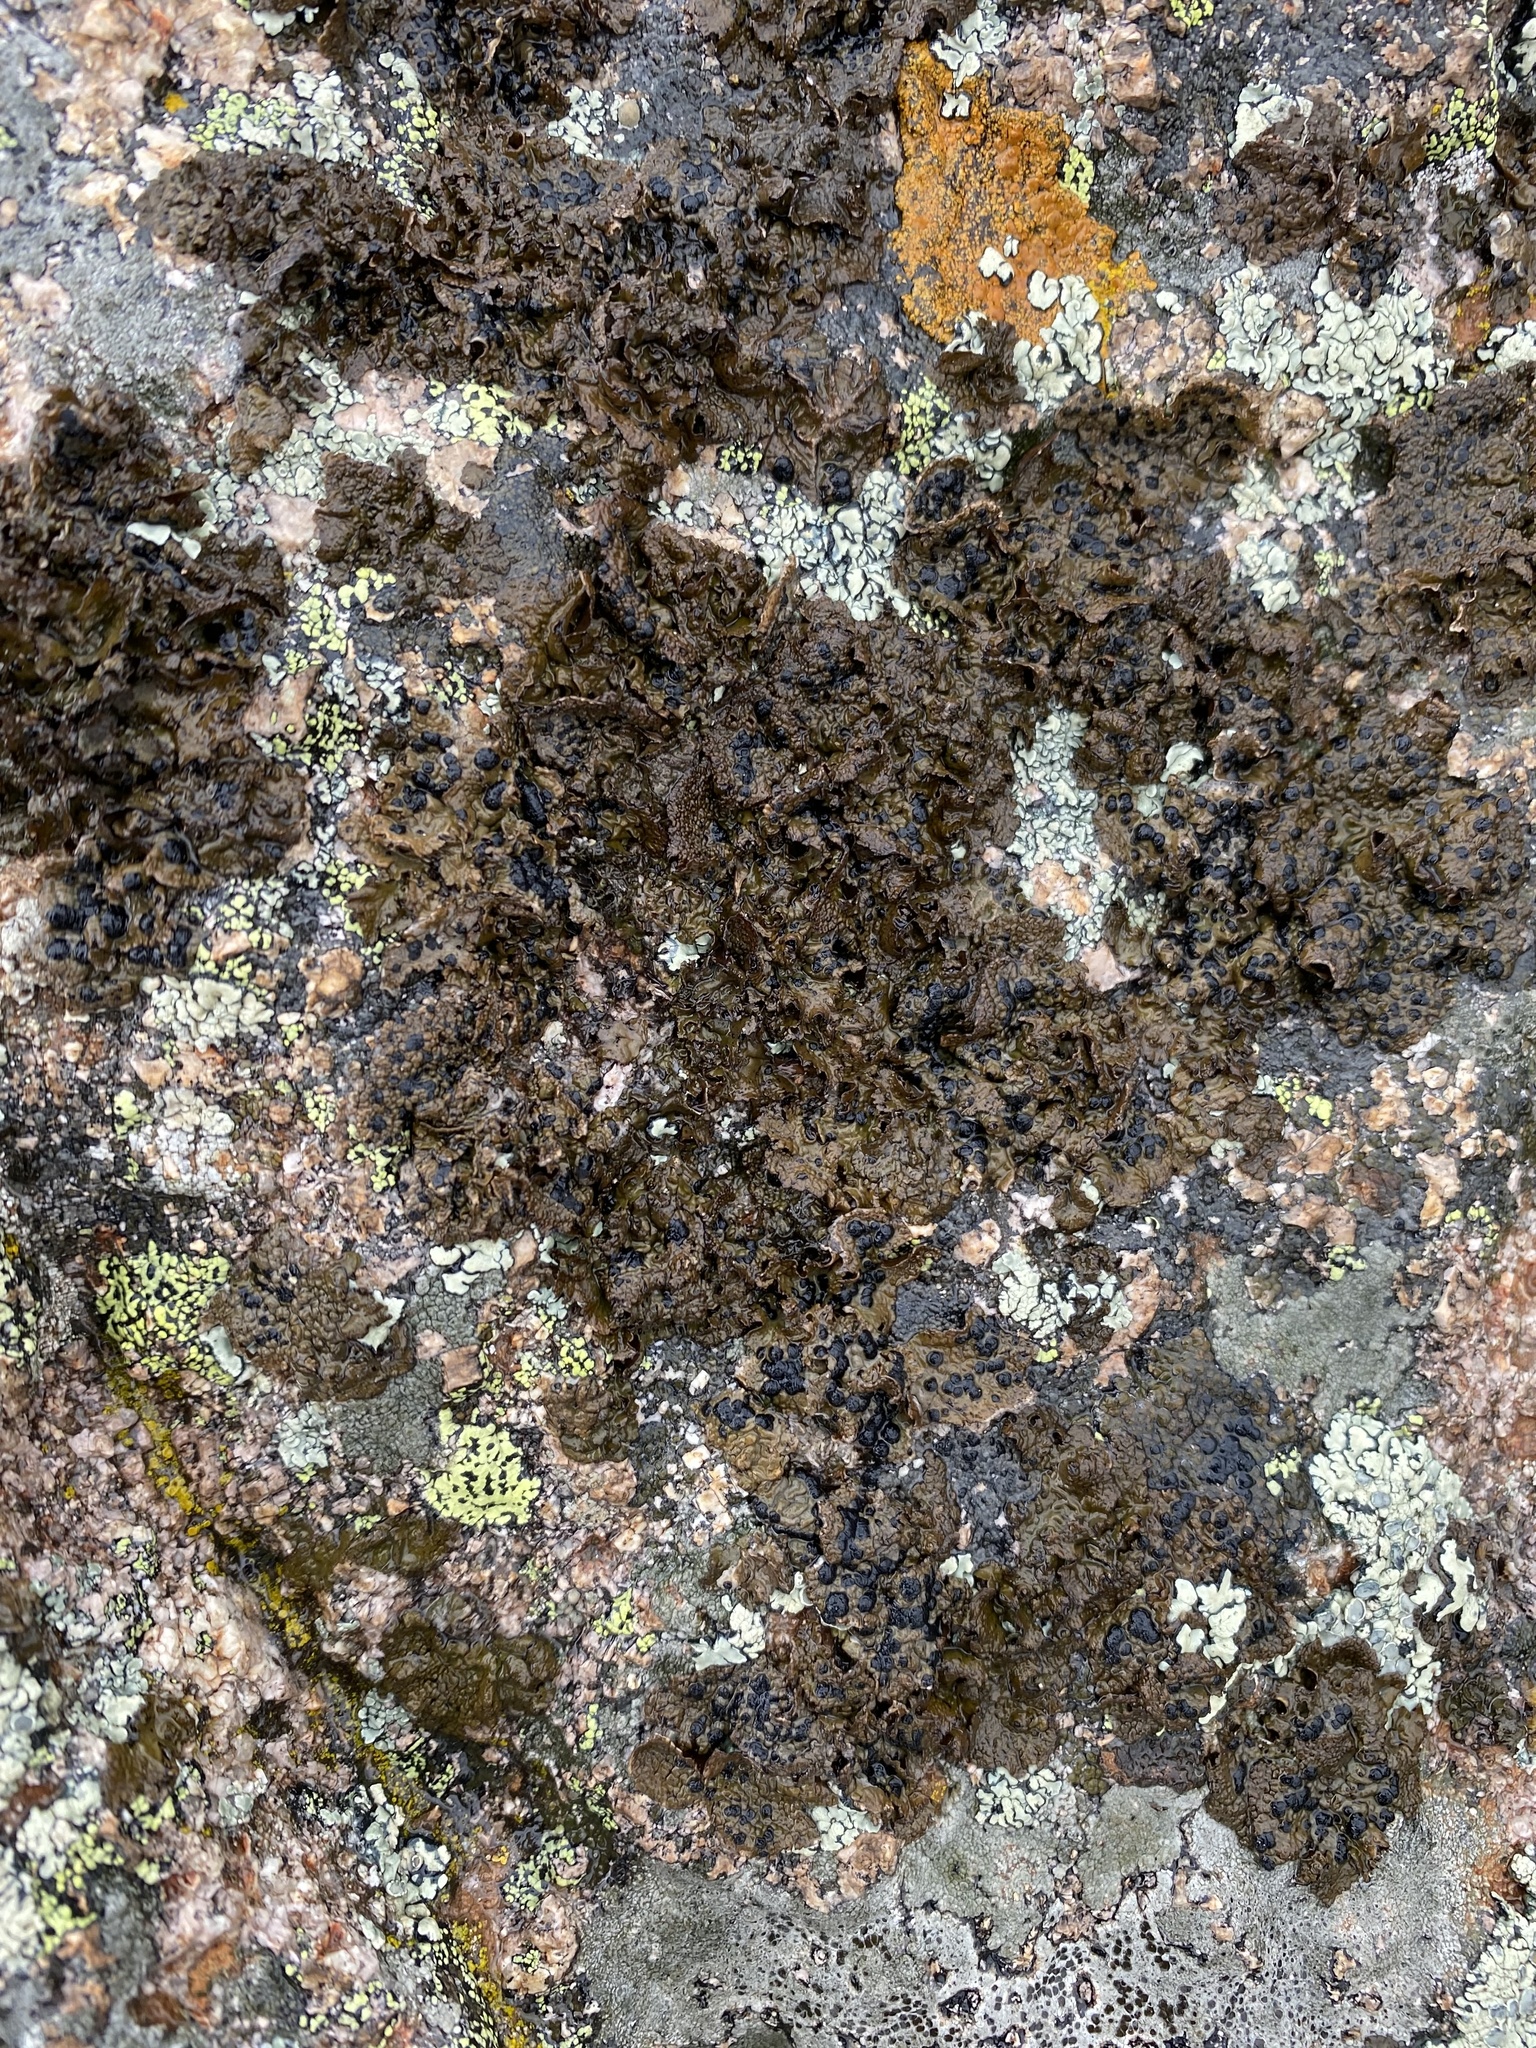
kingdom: Fungi
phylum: Ascomycota
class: Lecanoromycetes
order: Umbilicariales
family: Umbilicariaceae
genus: Umbilicaria
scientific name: Umbilicaria
